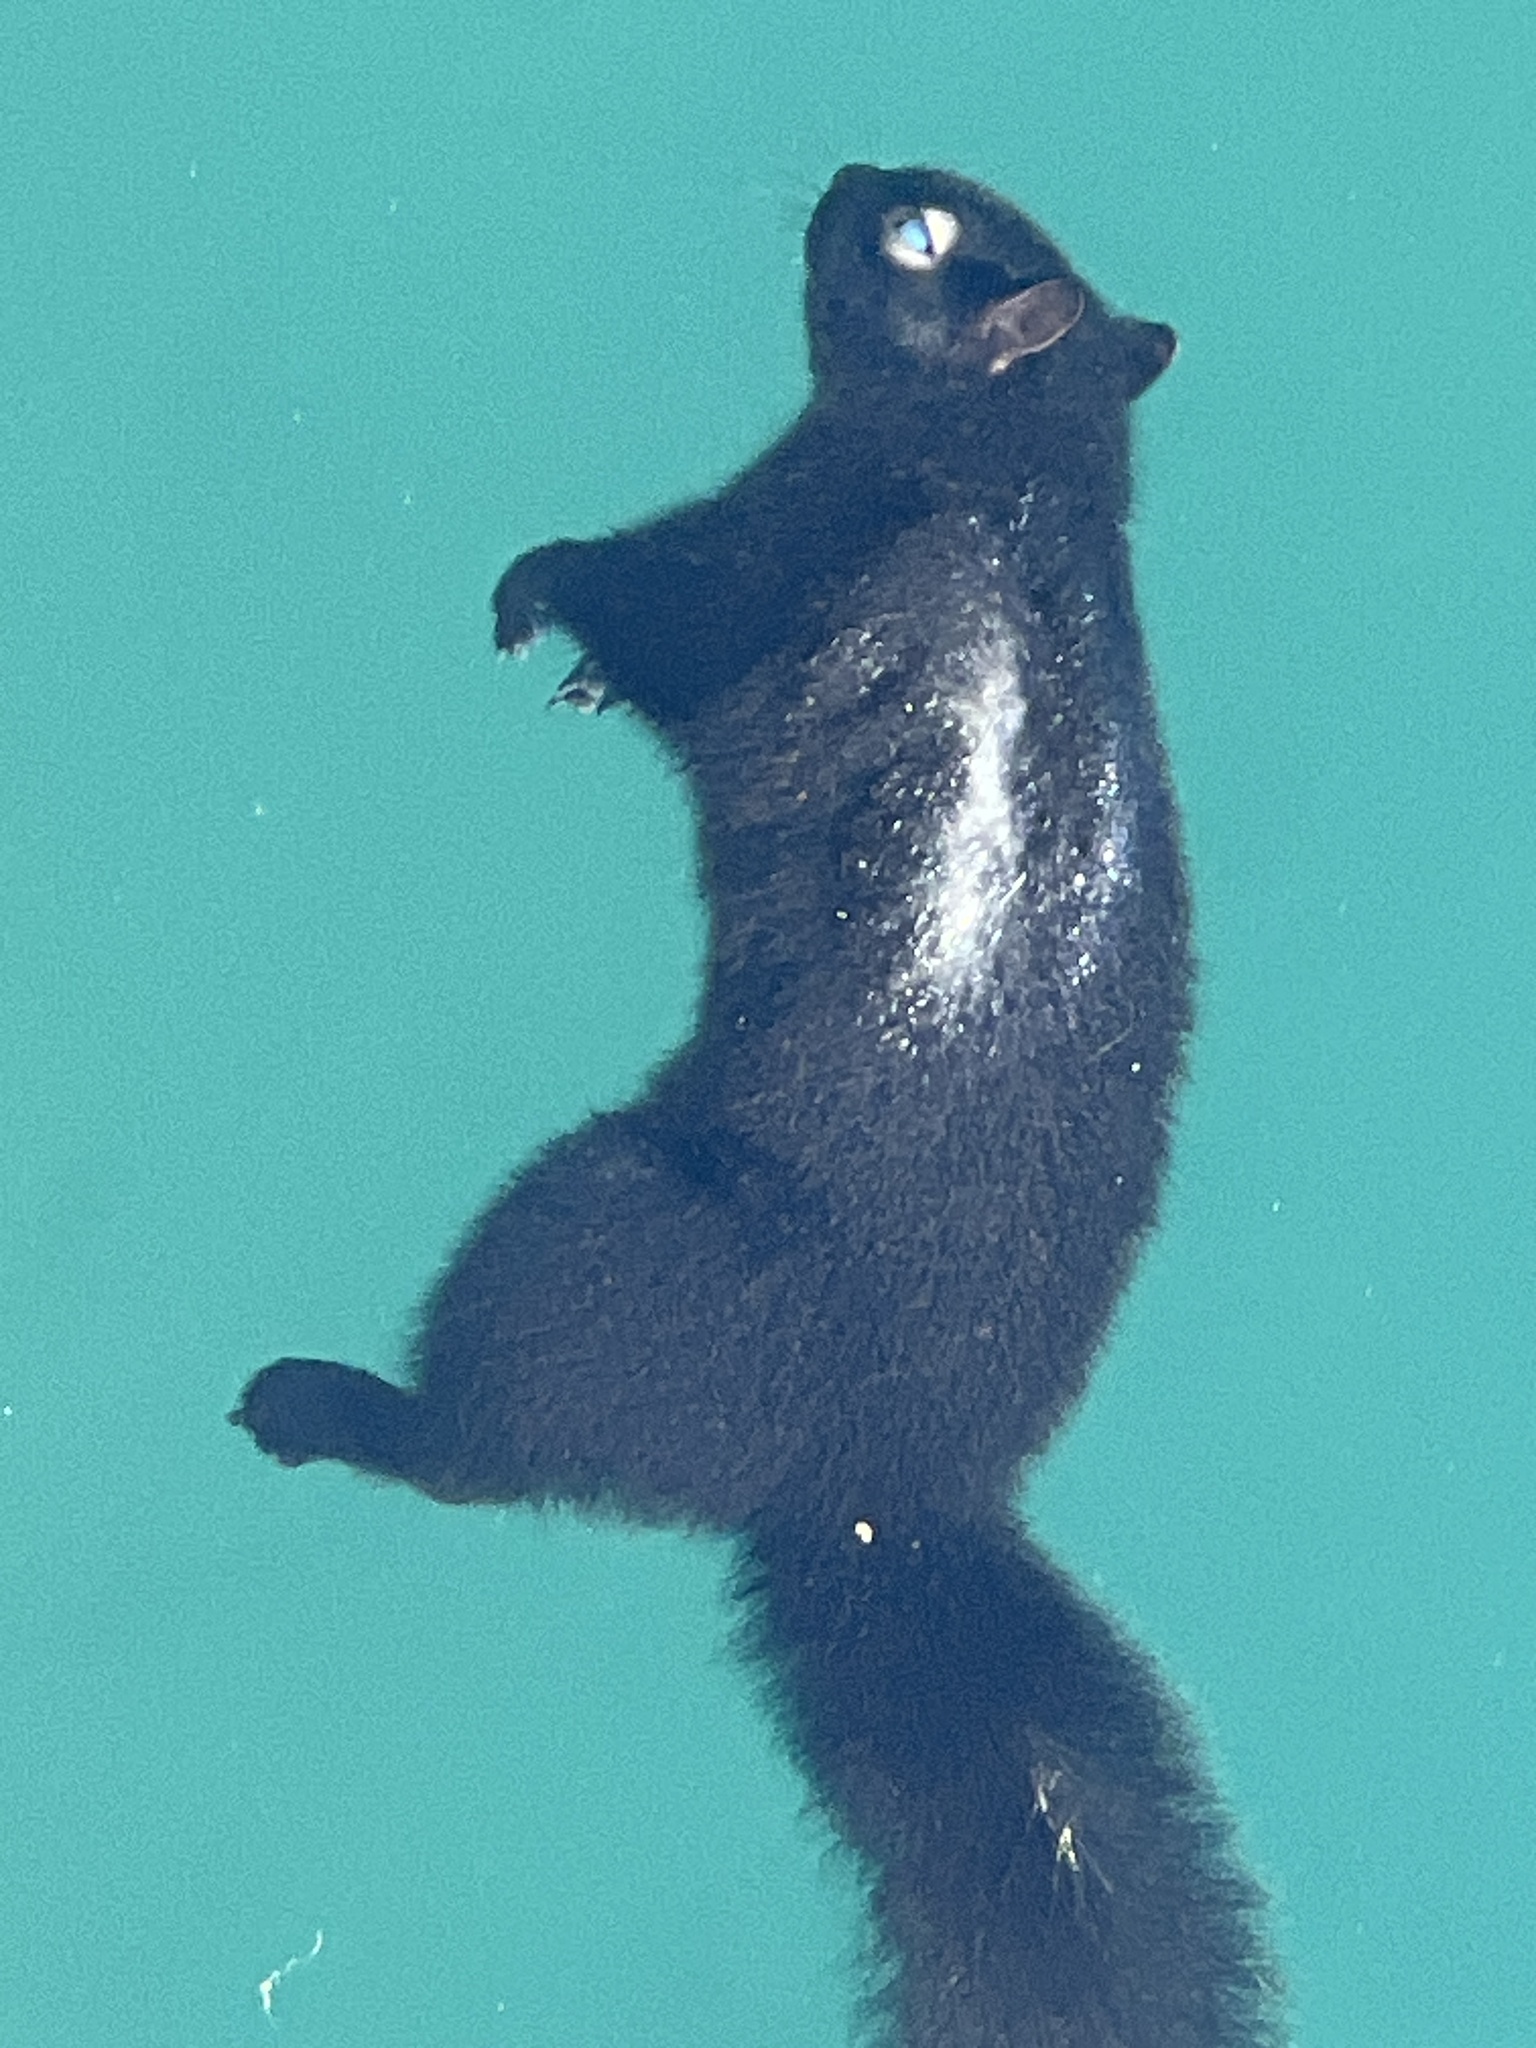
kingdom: Animalia
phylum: Chordata
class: Mammalia
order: Rodentia
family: Sciuridae
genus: Sciurus
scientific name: Sciurus carolinensis
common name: Eastern gray squirrel
